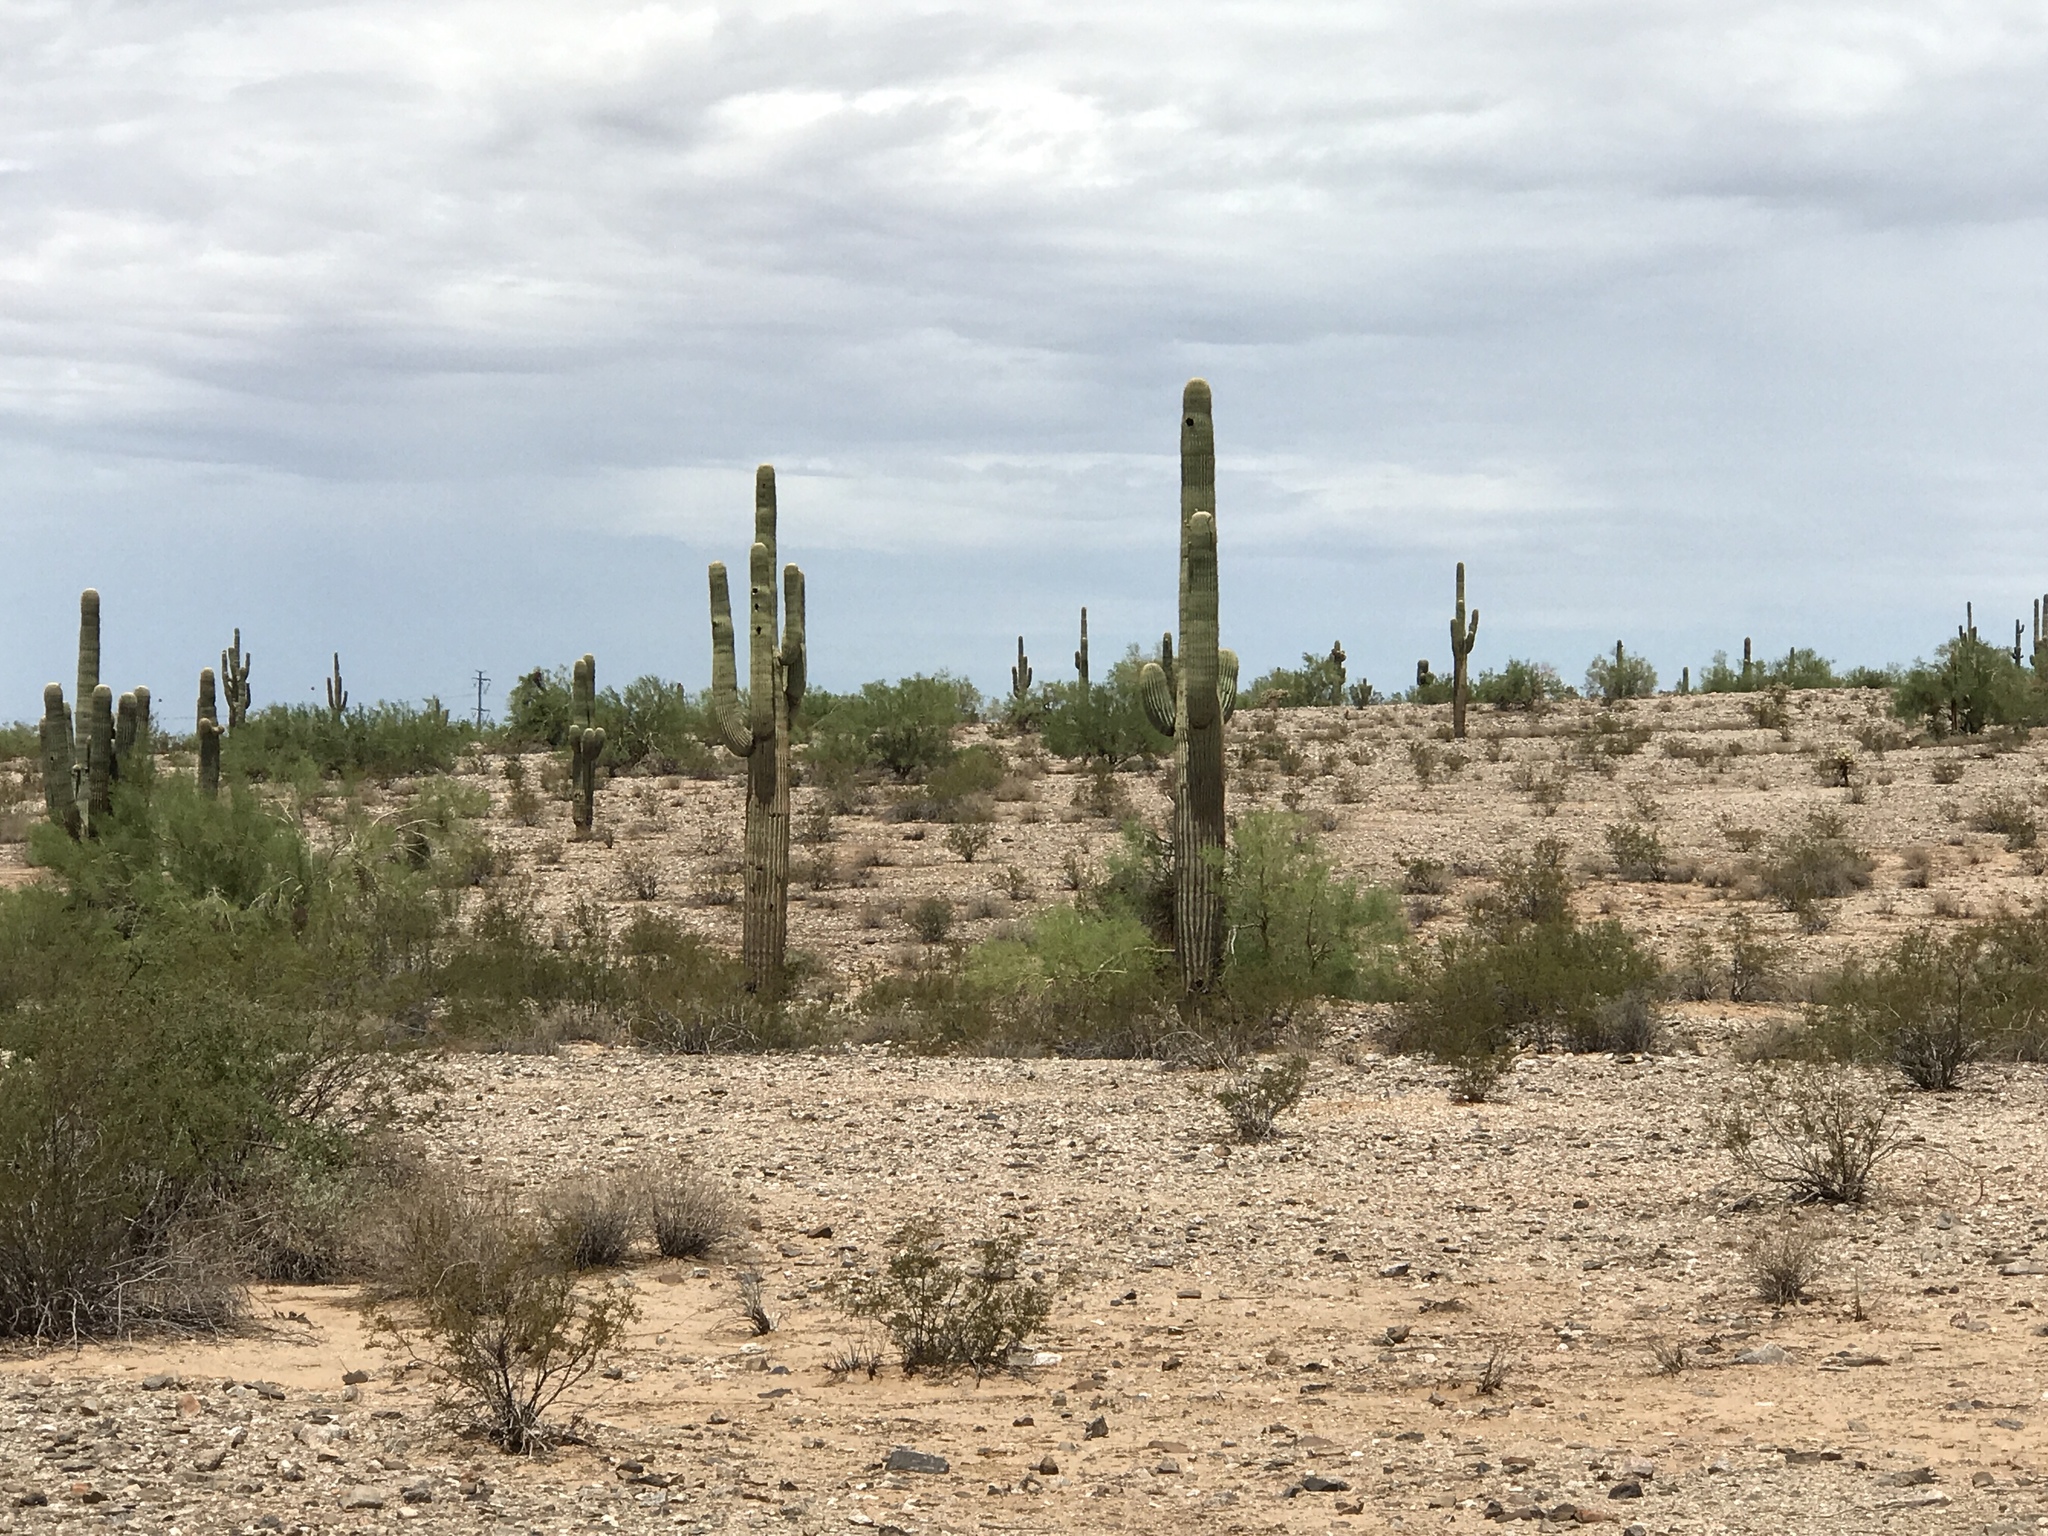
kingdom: Plantae
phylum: Tracheophyta
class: Magnoliopsida
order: Caryophyllales
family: Cactaceae
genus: Carnegiea
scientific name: Carnegiea gigantea
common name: Saguaro
